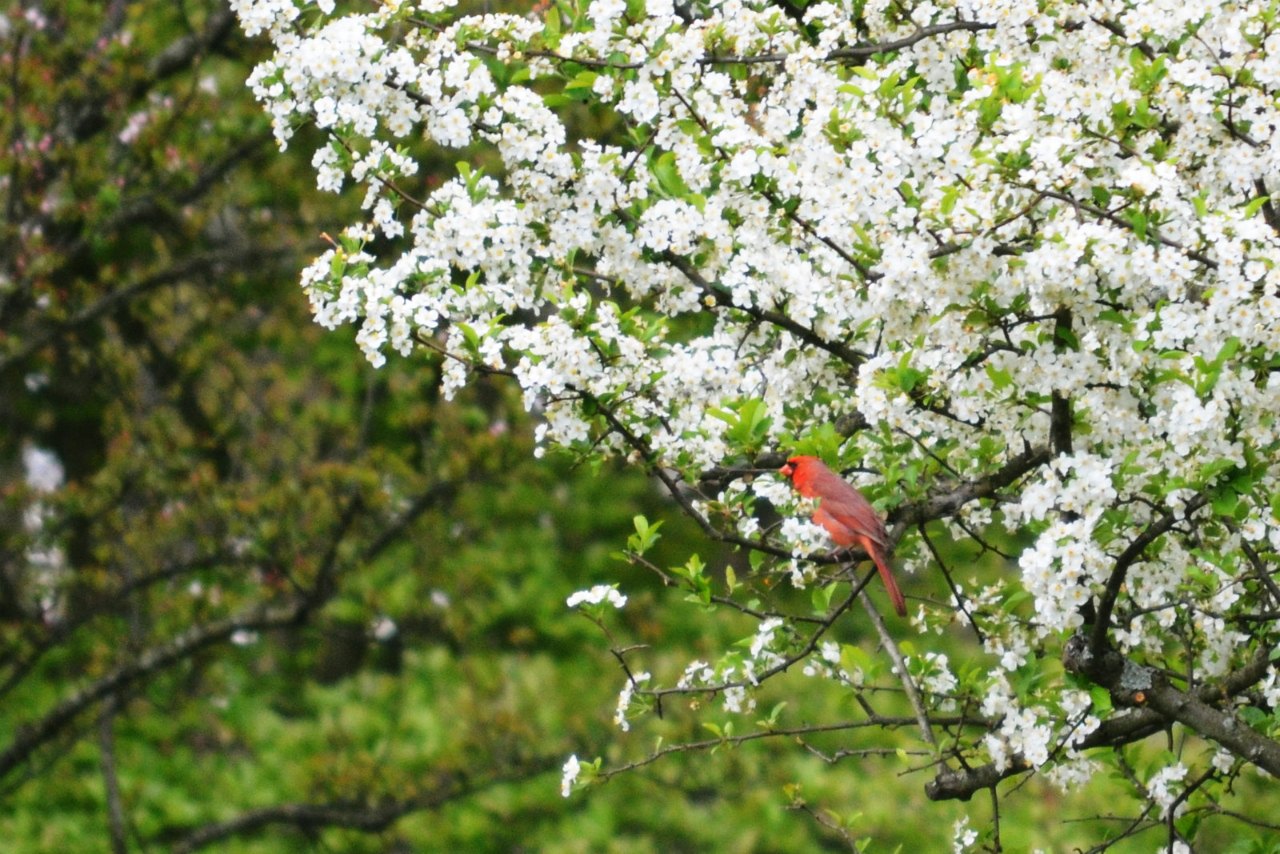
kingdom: Animalia
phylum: Chordata
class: Aves
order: Passeriformes
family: Cardinalidae
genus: Cardinalis
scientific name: Cardinalis cardinalis
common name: Northern cardinal
